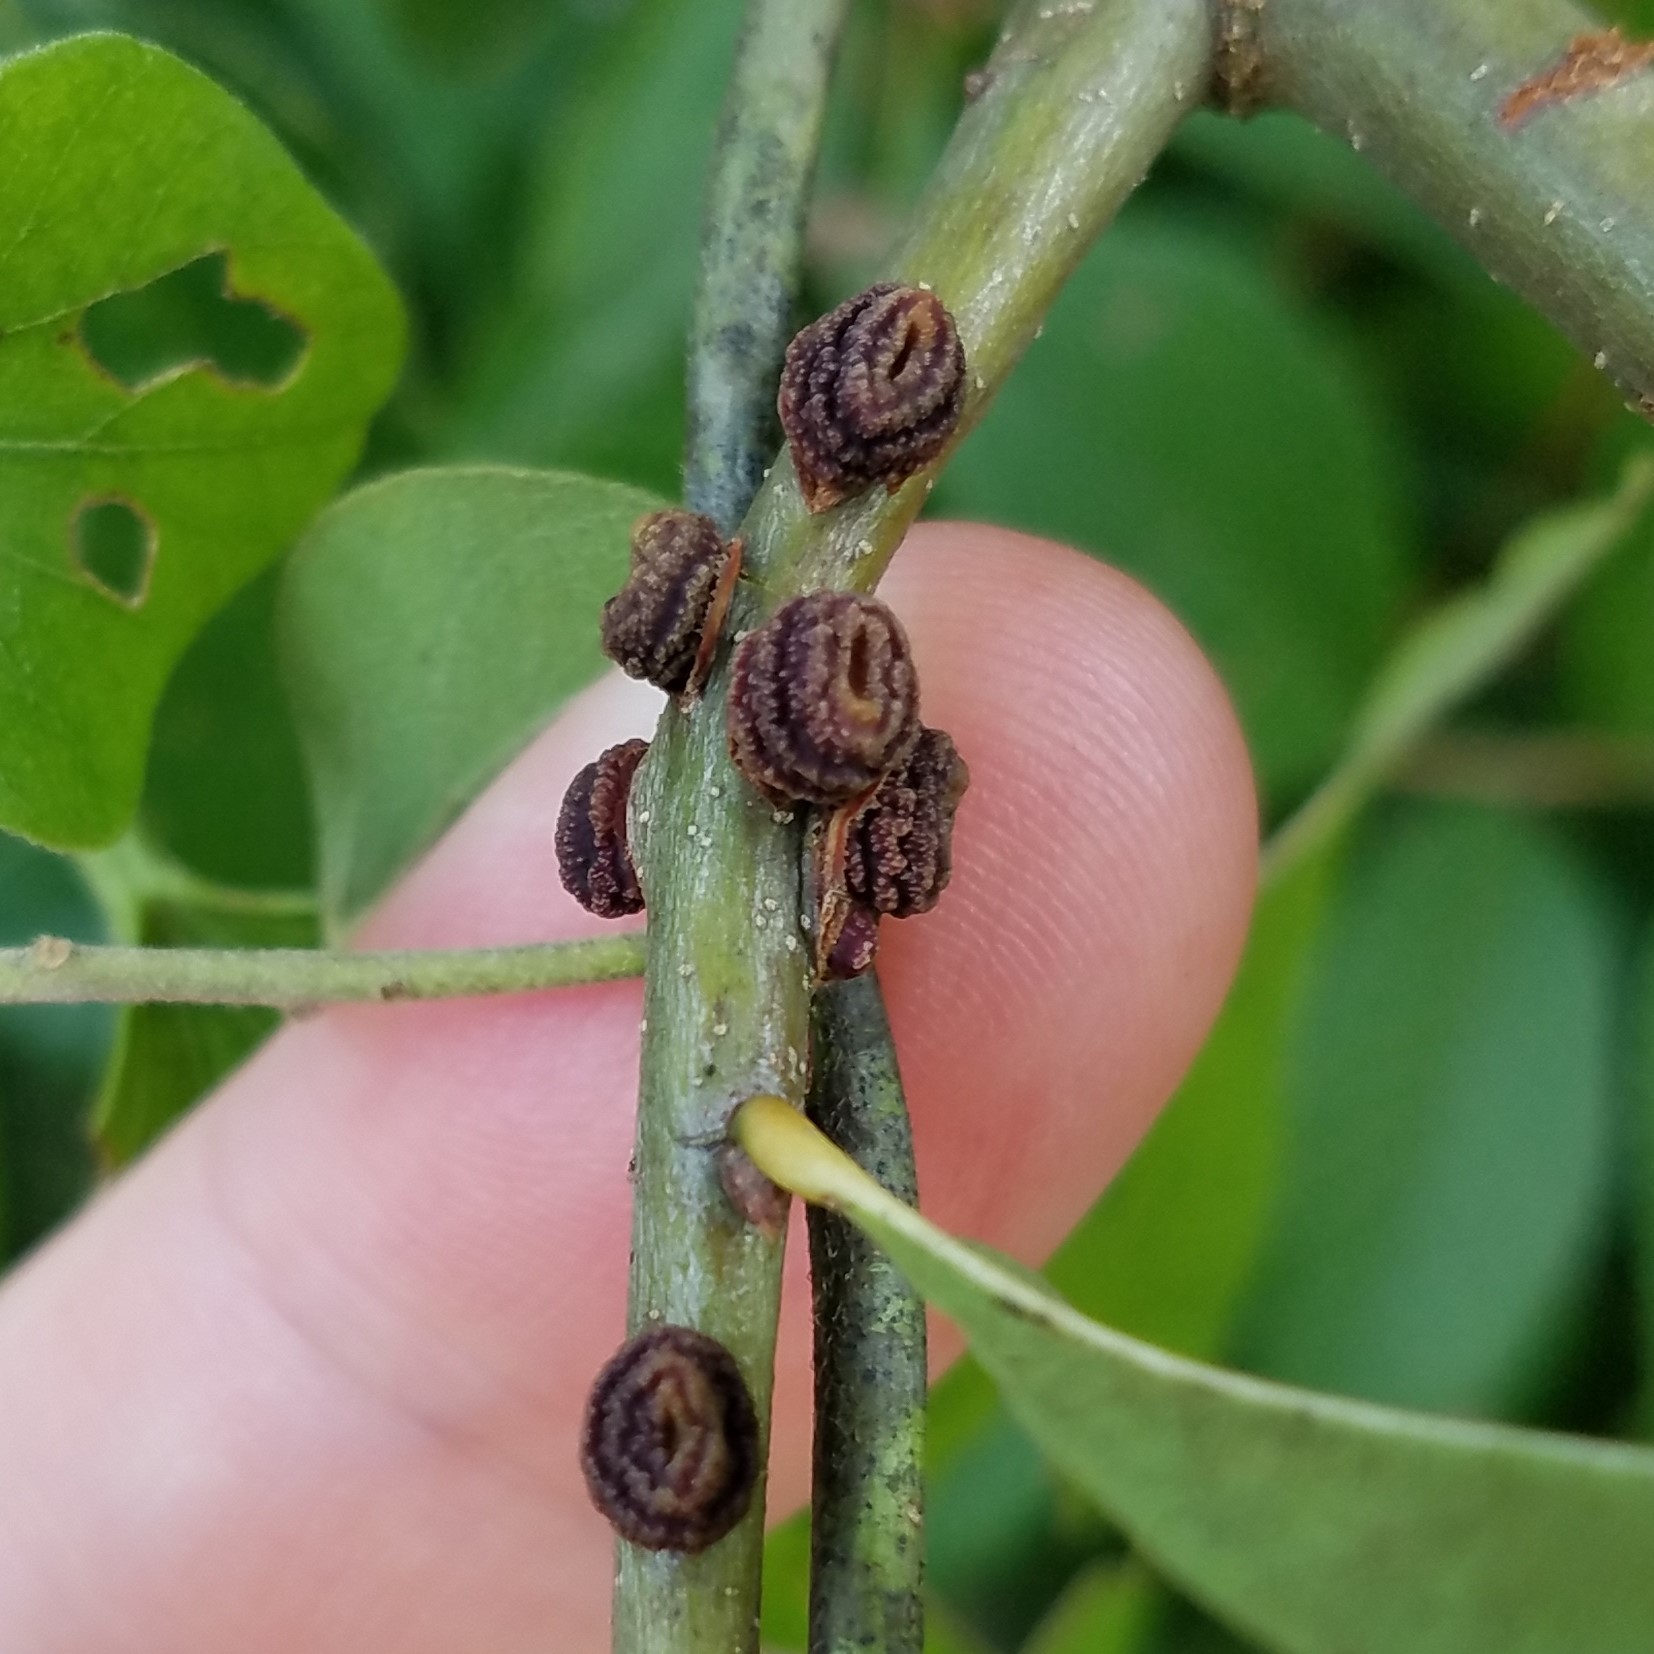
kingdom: Animalia
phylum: Arthropoda
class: Insecta
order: Hymenoptera
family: Cynipidae
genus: Kokkocynips
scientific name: Kokkocynips difficilis
